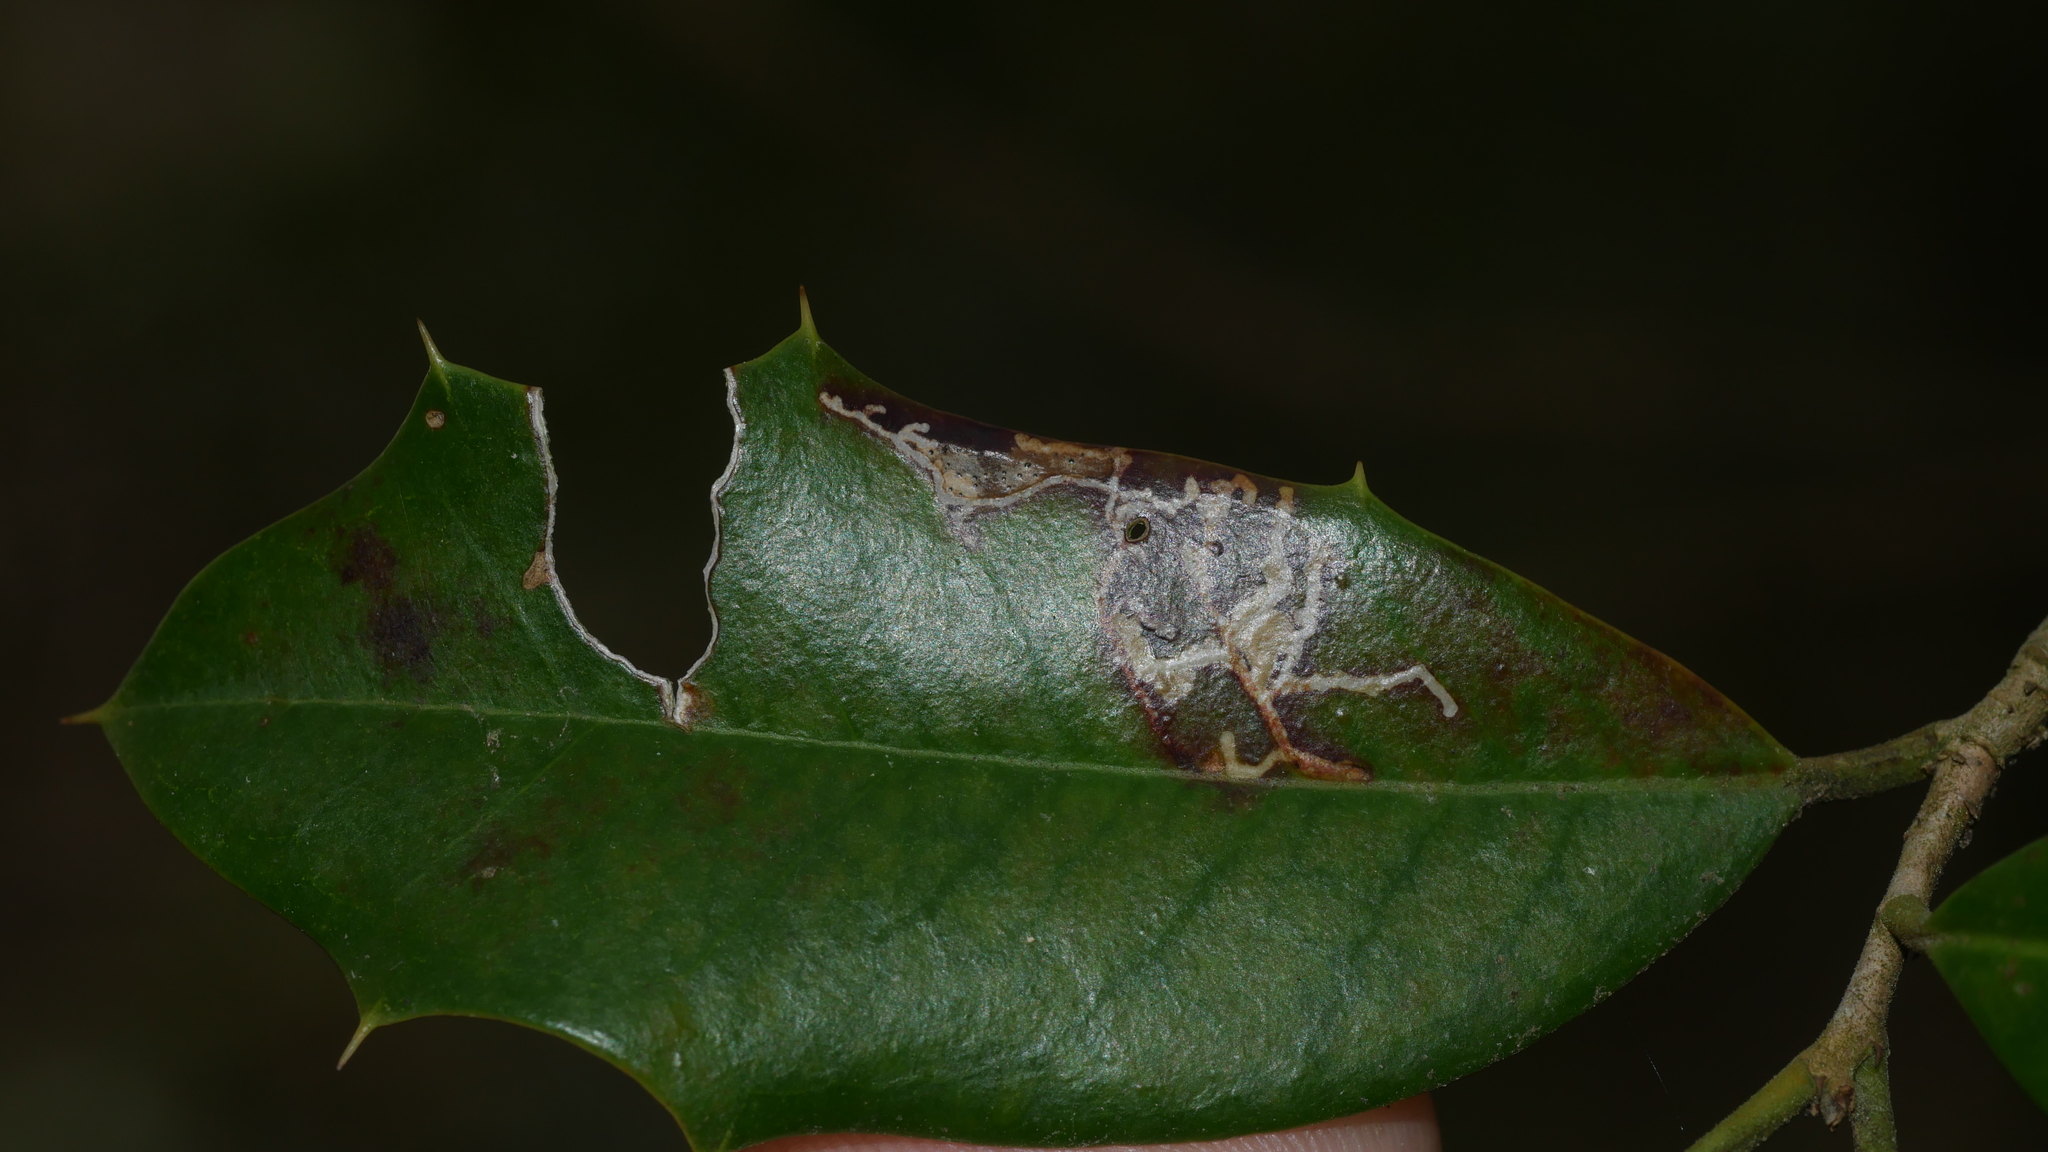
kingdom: Animalia
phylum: Arthropoda
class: Insecta
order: Lepidoptera
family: Tortricidae
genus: Rhopobota
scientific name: Rhopobota
